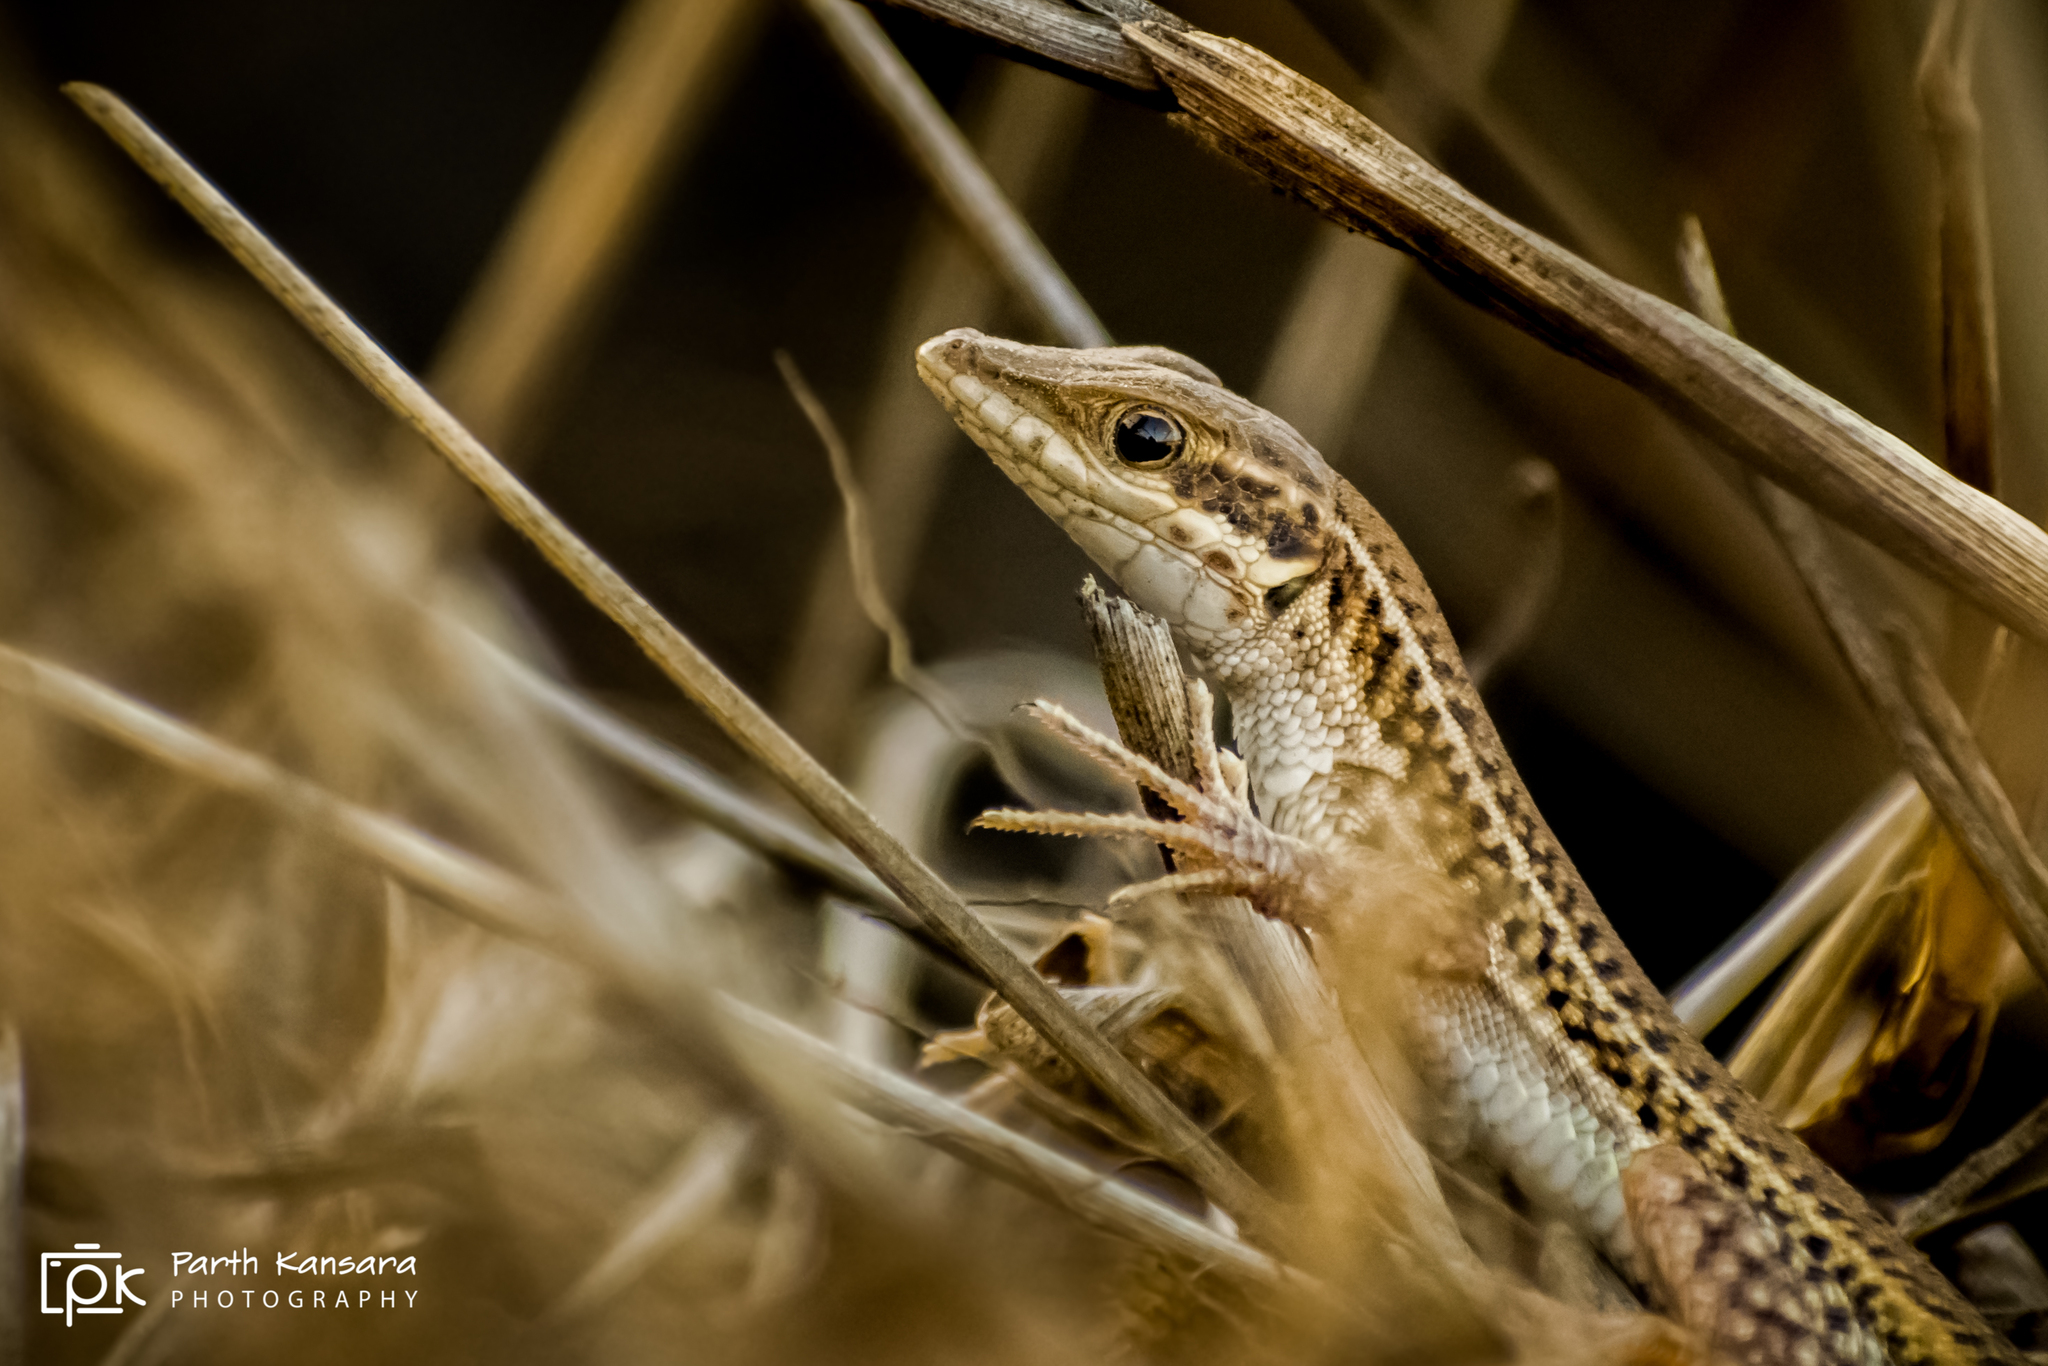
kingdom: Animalia
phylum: Chordata
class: Squamata
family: Lacertidae
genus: Ophisops
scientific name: Ophisops kutchensis
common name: Kutch small-scaled snake-eye
